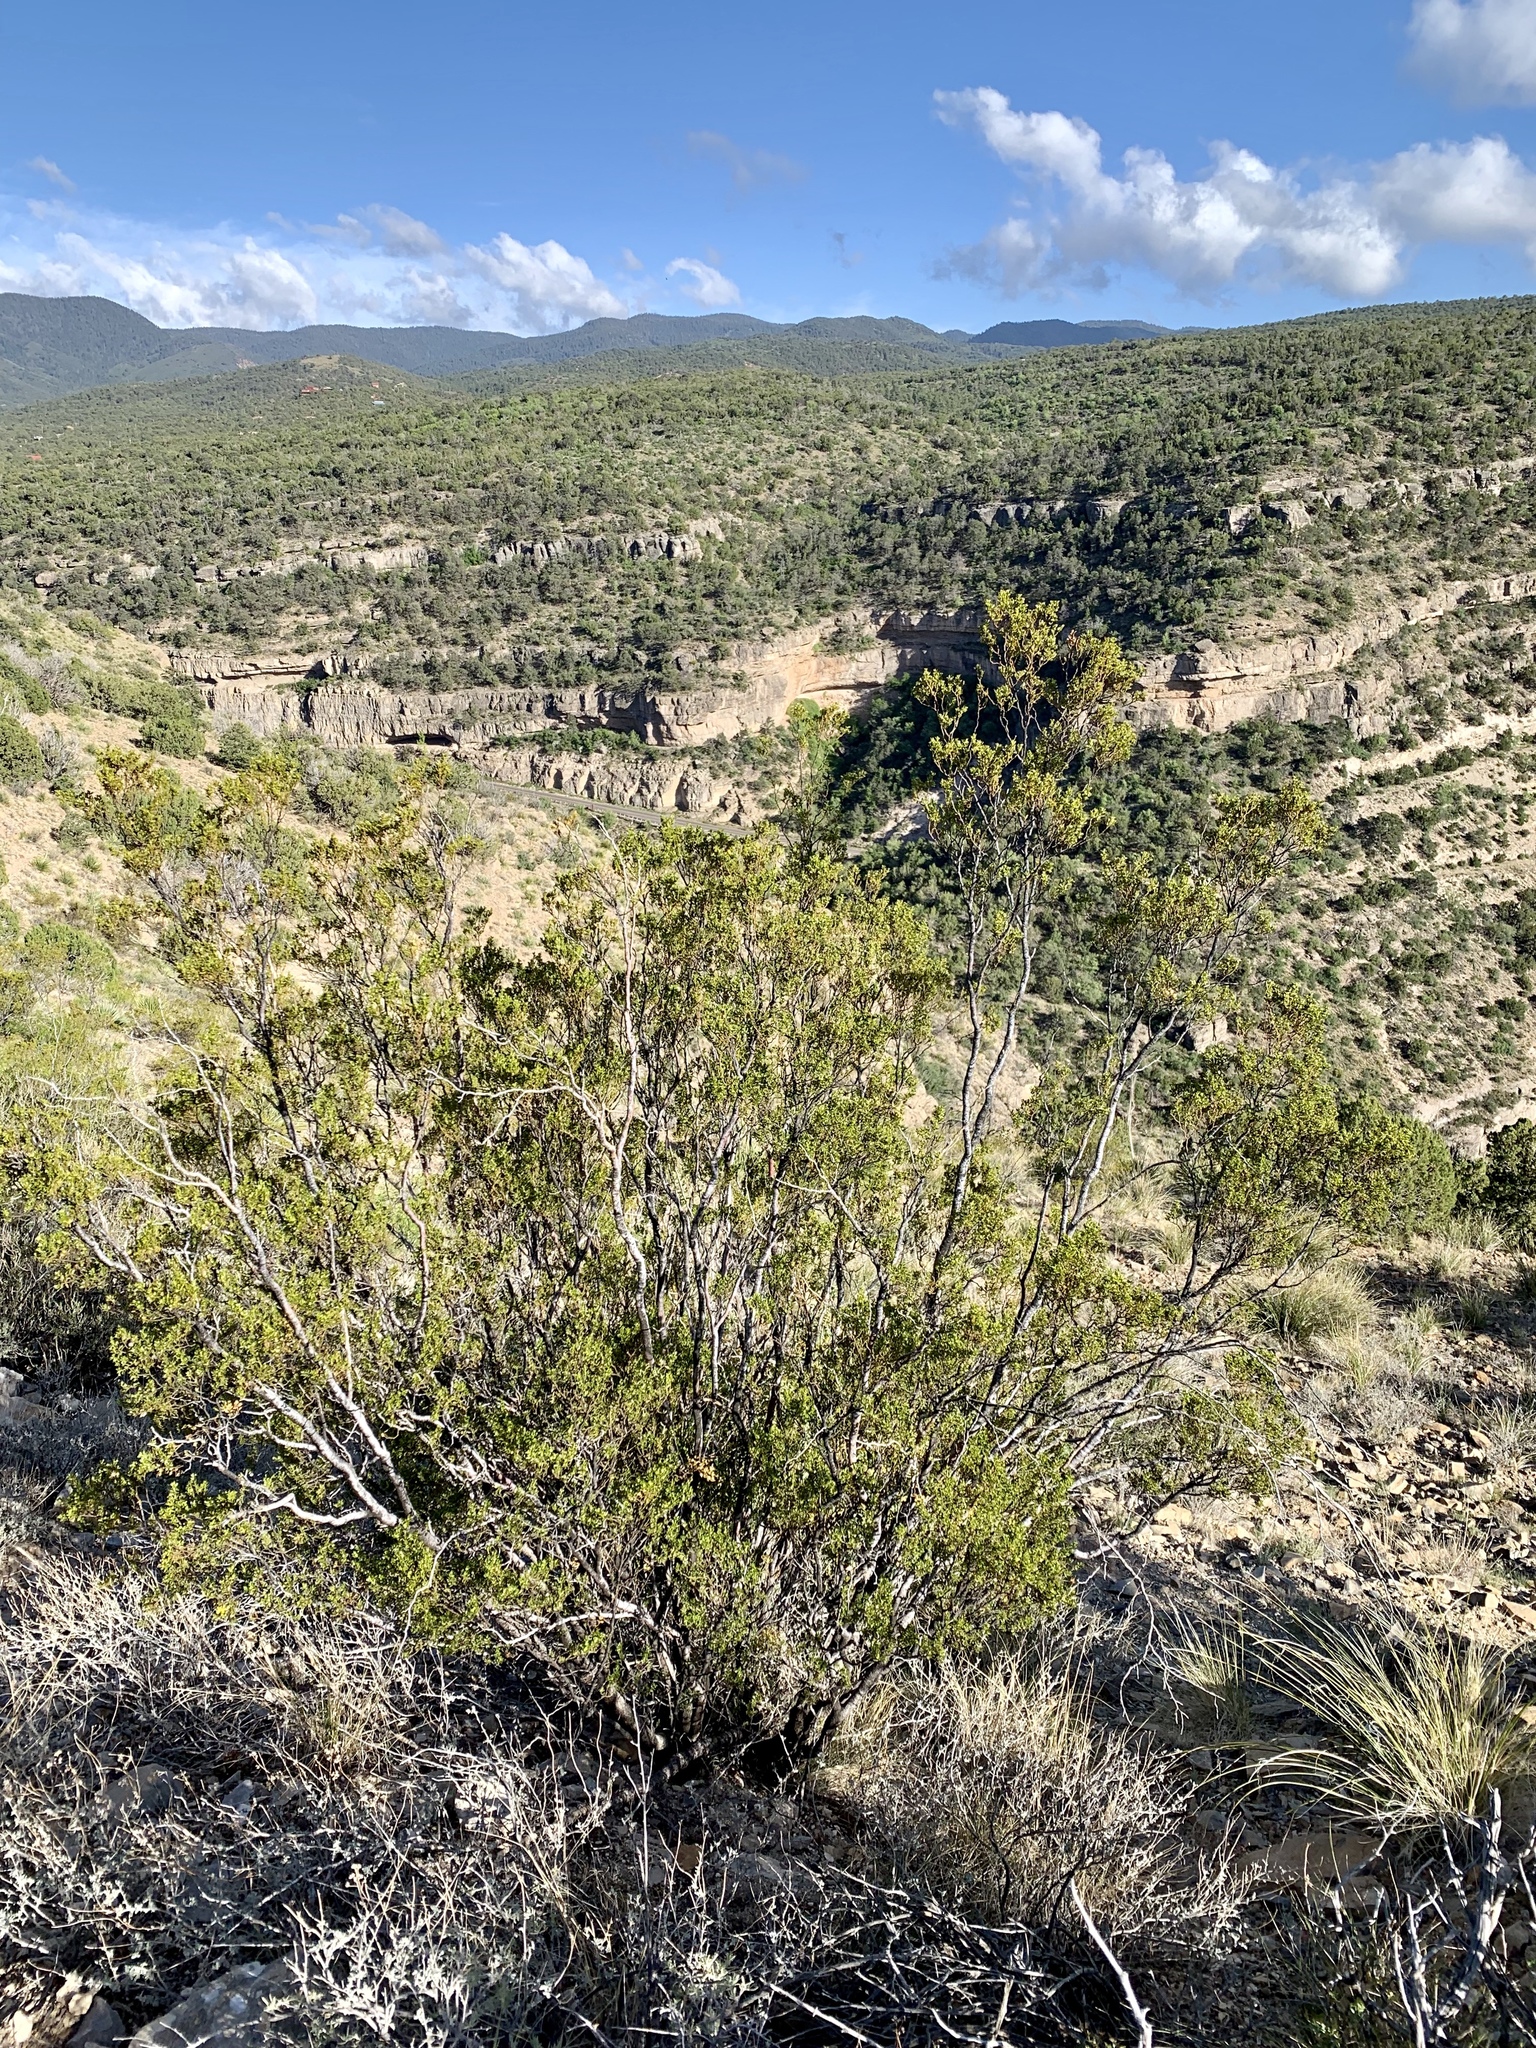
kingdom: Plantae
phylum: Tracheophyta
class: Magnoliopsida
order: Zygophyllales
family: Zygophyllaceae
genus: Larrea
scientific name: Larrea tridentata
